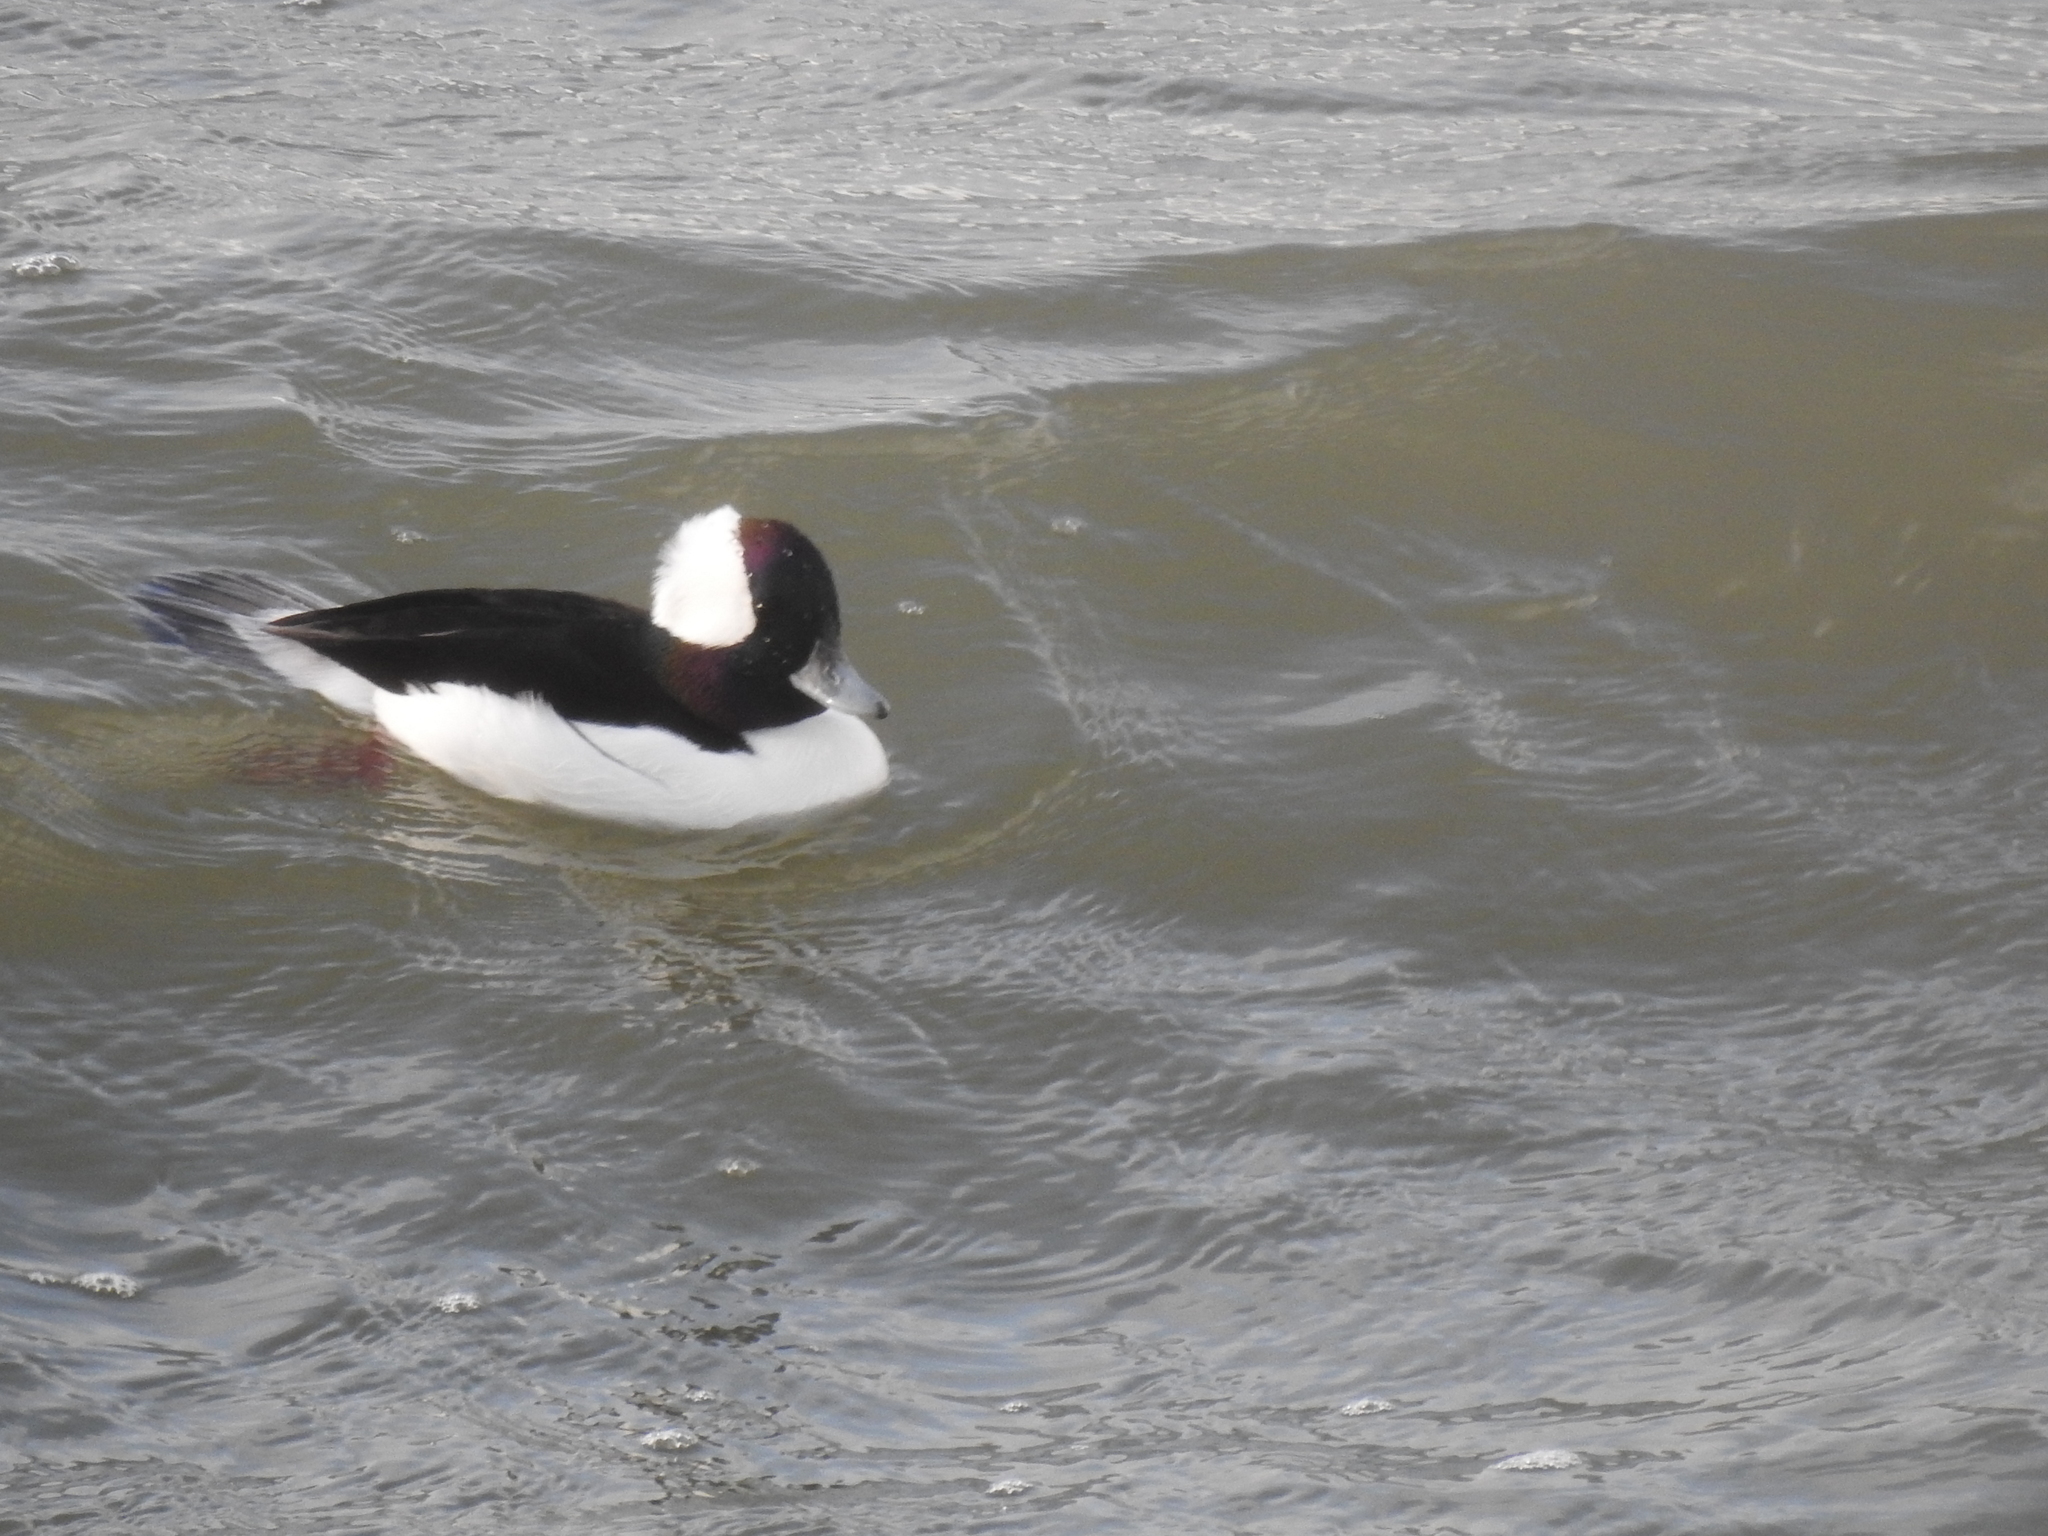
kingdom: Animalia
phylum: Chordata
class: Aves
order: Anseriformes
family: Anatidae
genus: Bucephala
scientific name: Bucephala albeola
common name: Bufflehead
